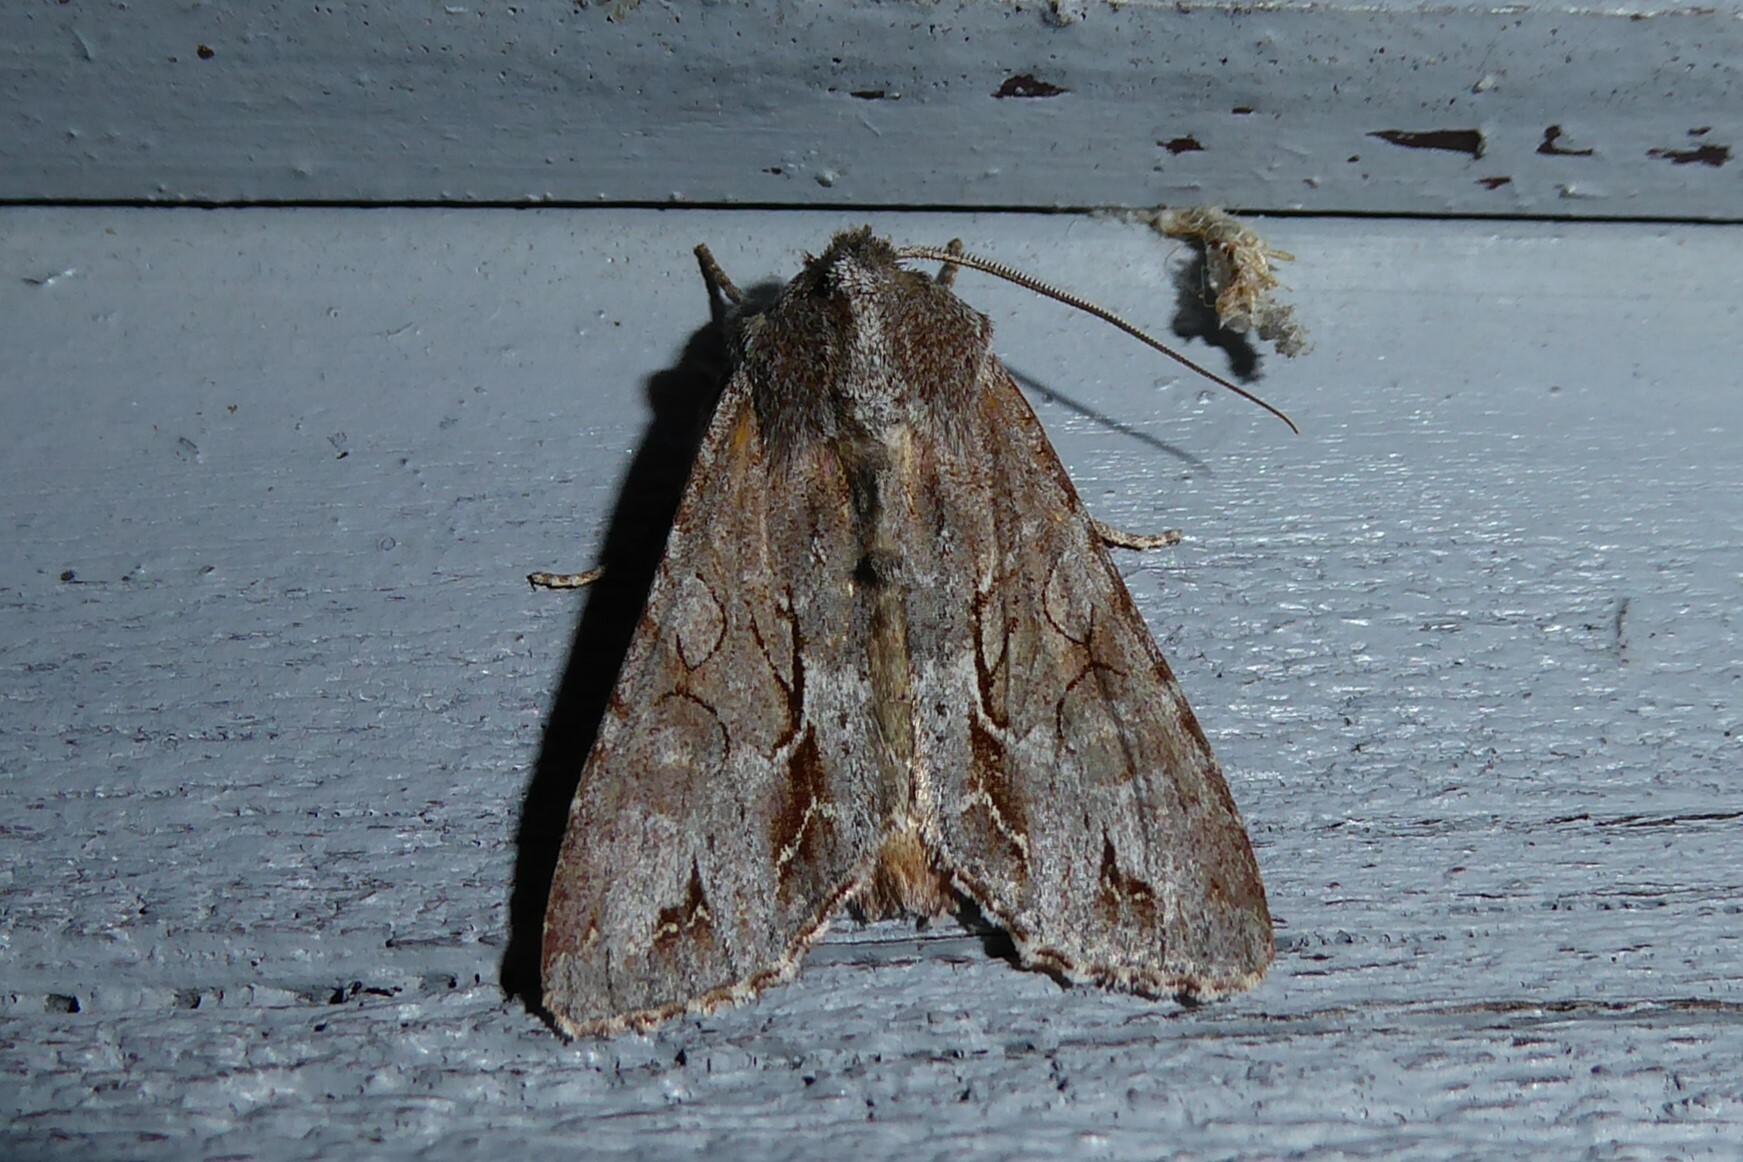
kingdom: Animalia
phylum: Arthropoda
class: Insecta
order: Lepidoptera
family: Noctuidae
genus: Ichneutica
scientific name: Ichneutica
